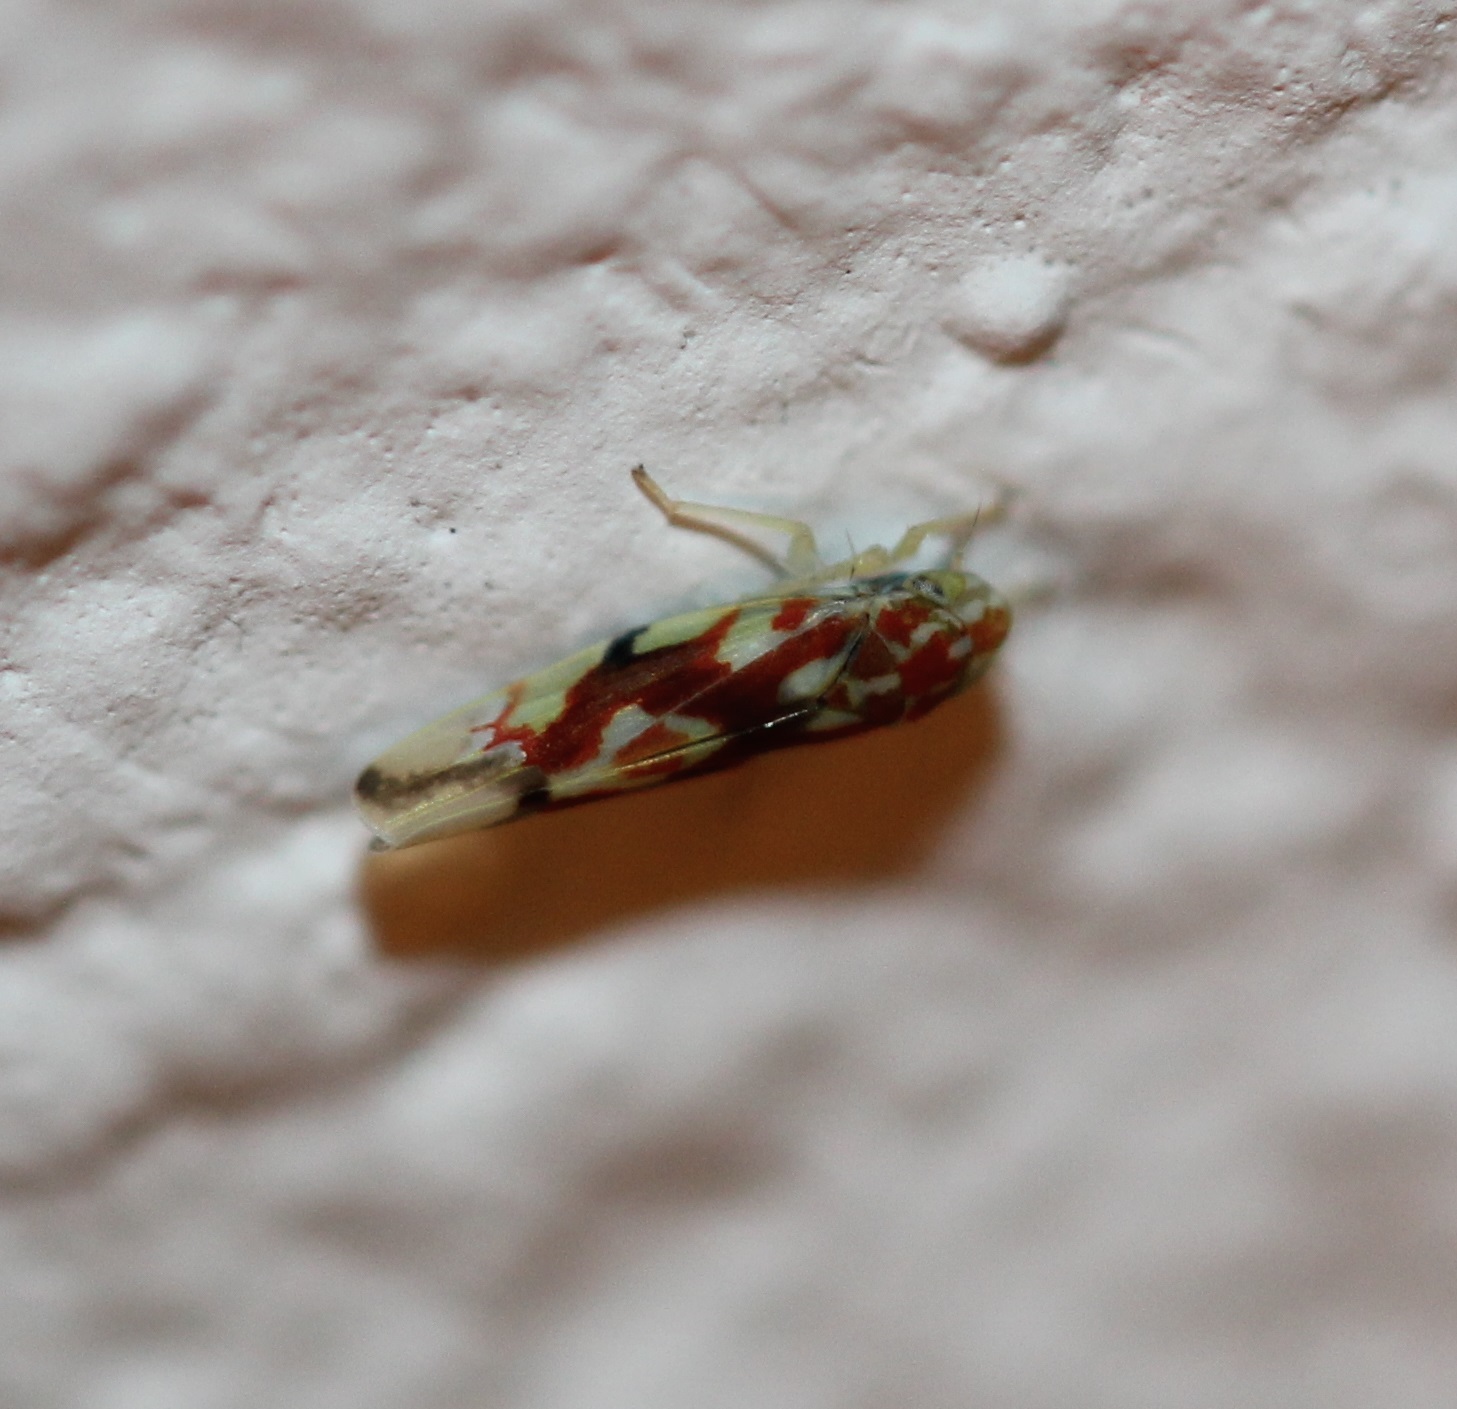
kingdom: Animalia
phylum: Arthropoda
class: Insecta
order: Hemiptera
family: Cicadellidae
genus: Erythroneura
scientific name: Erythroneura prima
